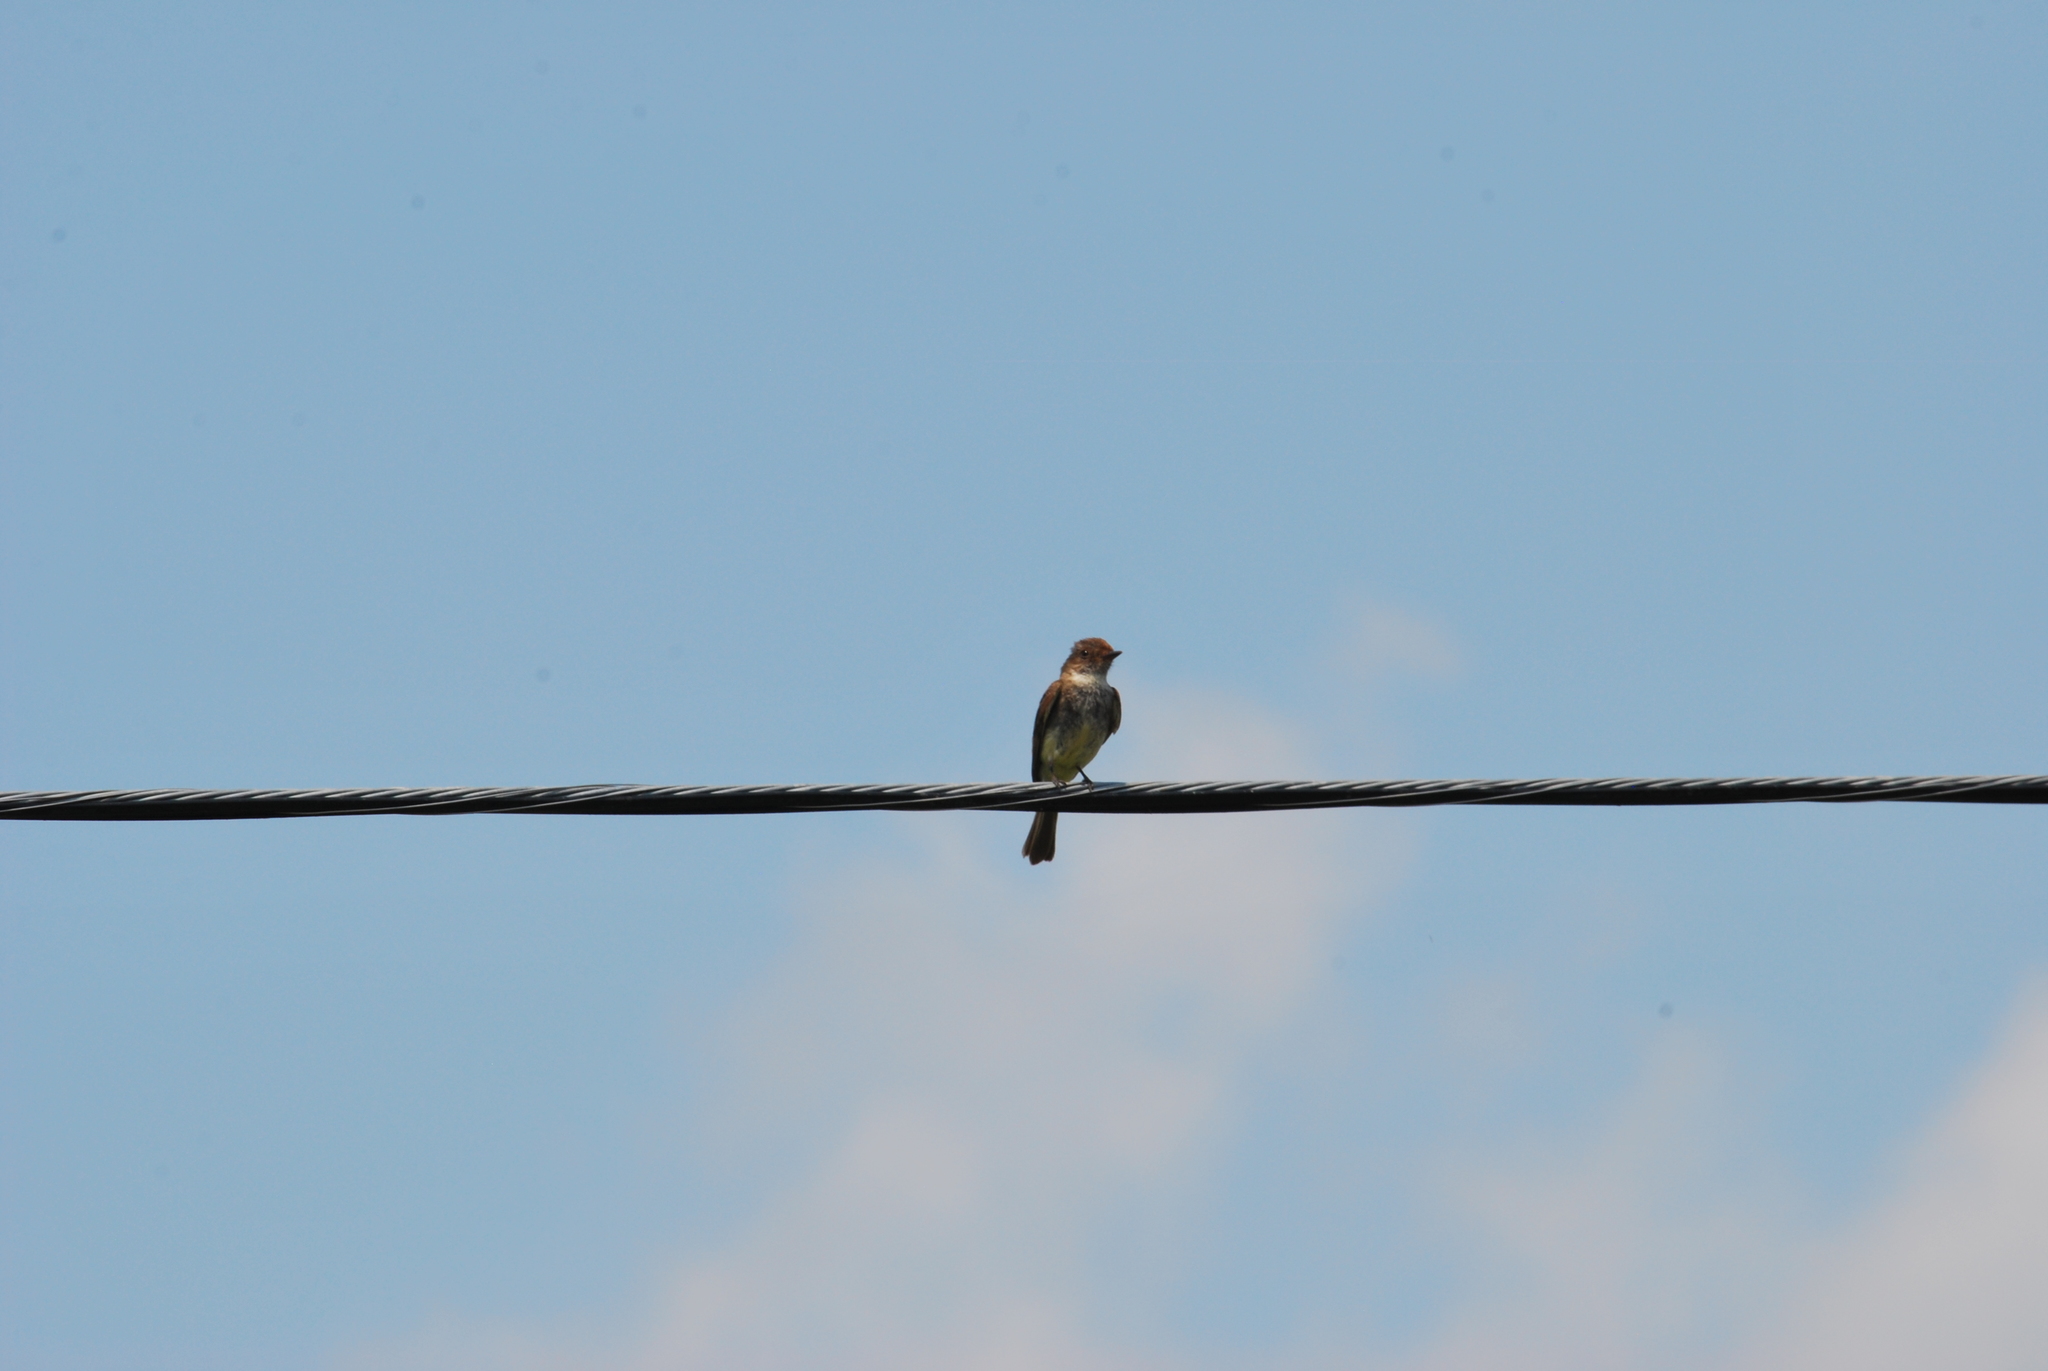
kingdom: Animalia
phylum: Chordata
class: Aves
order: Passeriformes
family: Tyrannidae
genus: Sayornis
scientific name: Sayornis phoebe
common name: Eastern phoebe
